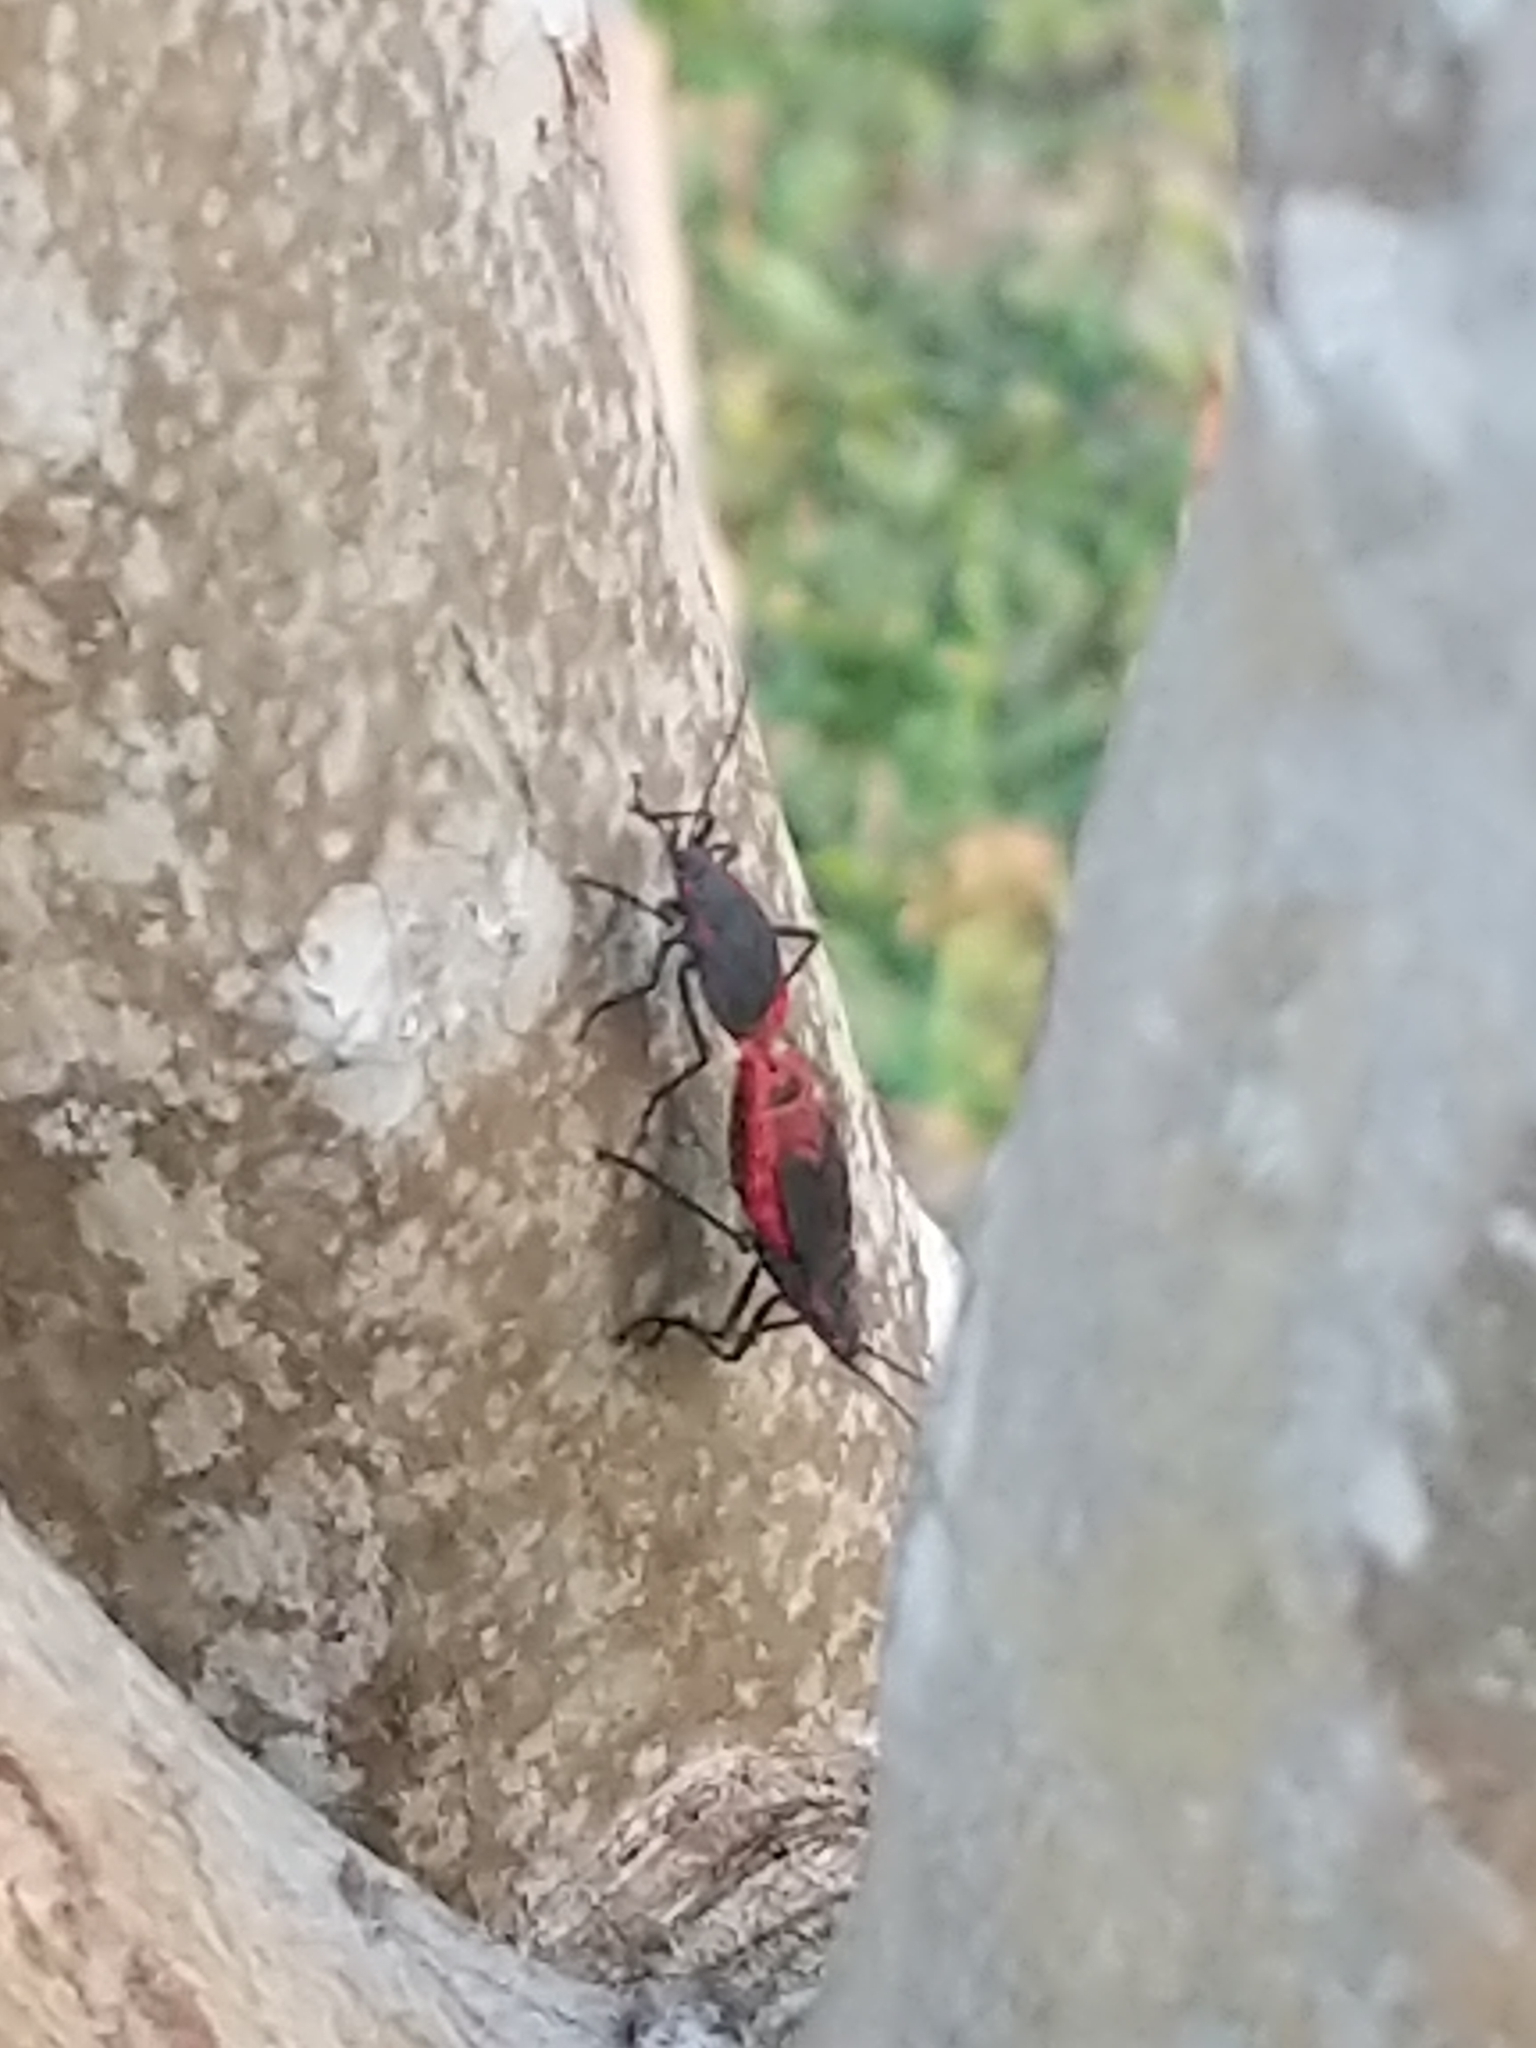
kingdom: Animalia
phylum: Arthropoda
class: Insecta
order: Hemiptera
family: Rhopalidae
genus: Jadera
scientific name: Jadera haematoloma
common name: Red-shouldered bug
